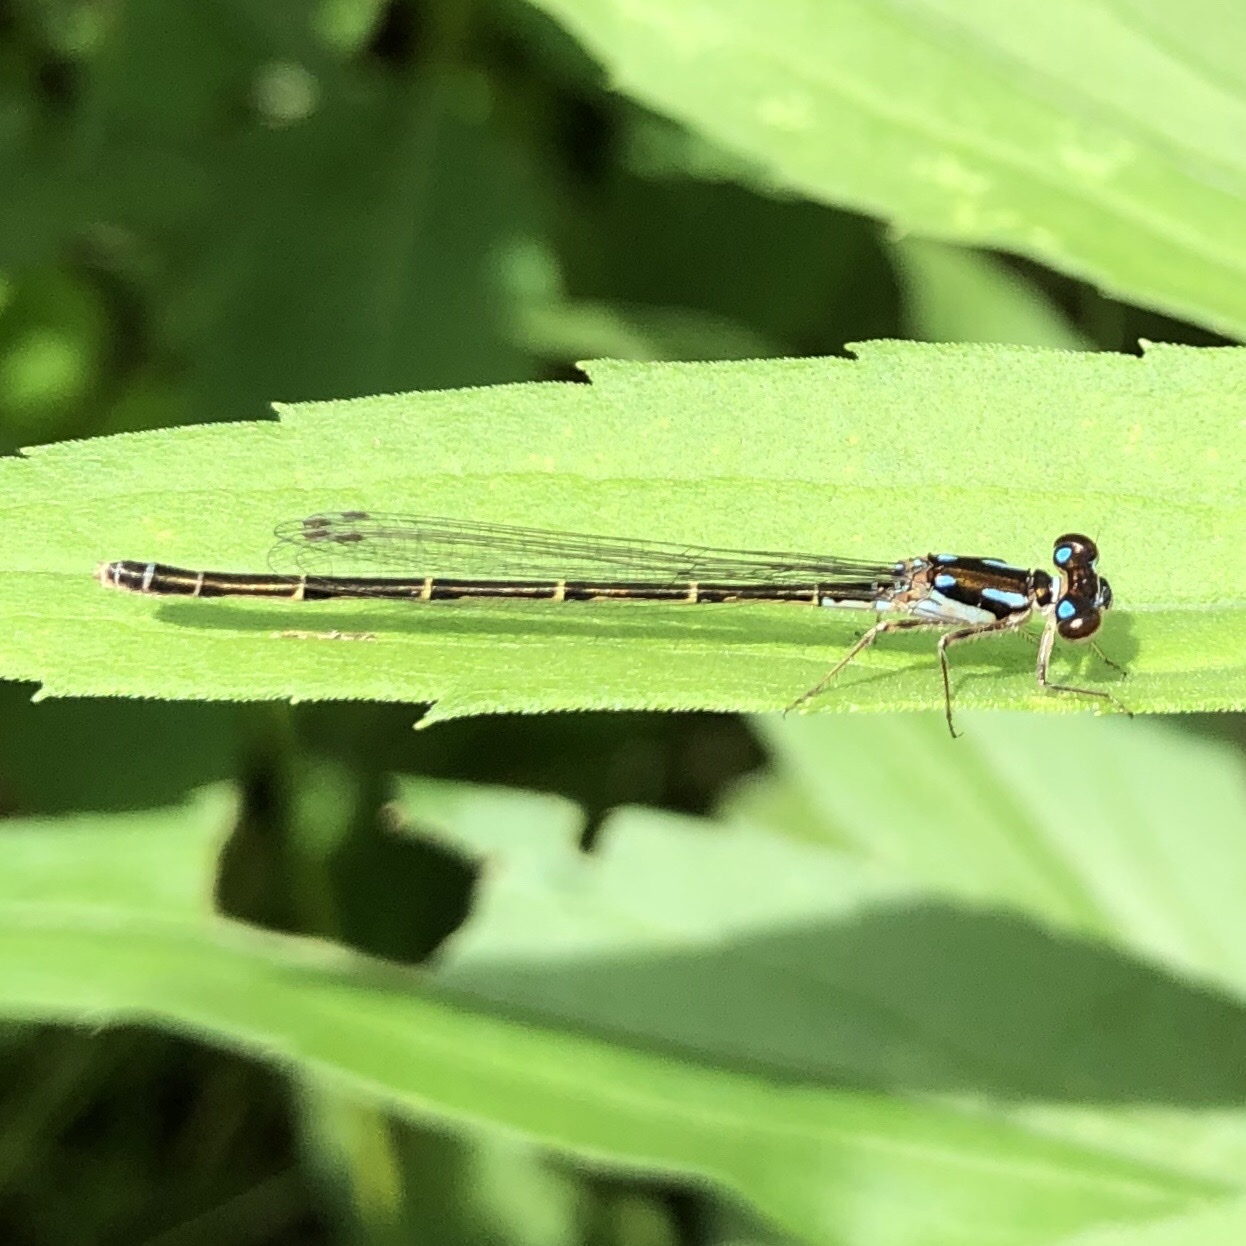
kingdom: Animalia
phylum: Arthropoda
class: Insecta
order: Odonata
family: Coenagrionidae
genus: Ischnura
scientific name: Ischnura posita
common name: Fragile forktail
